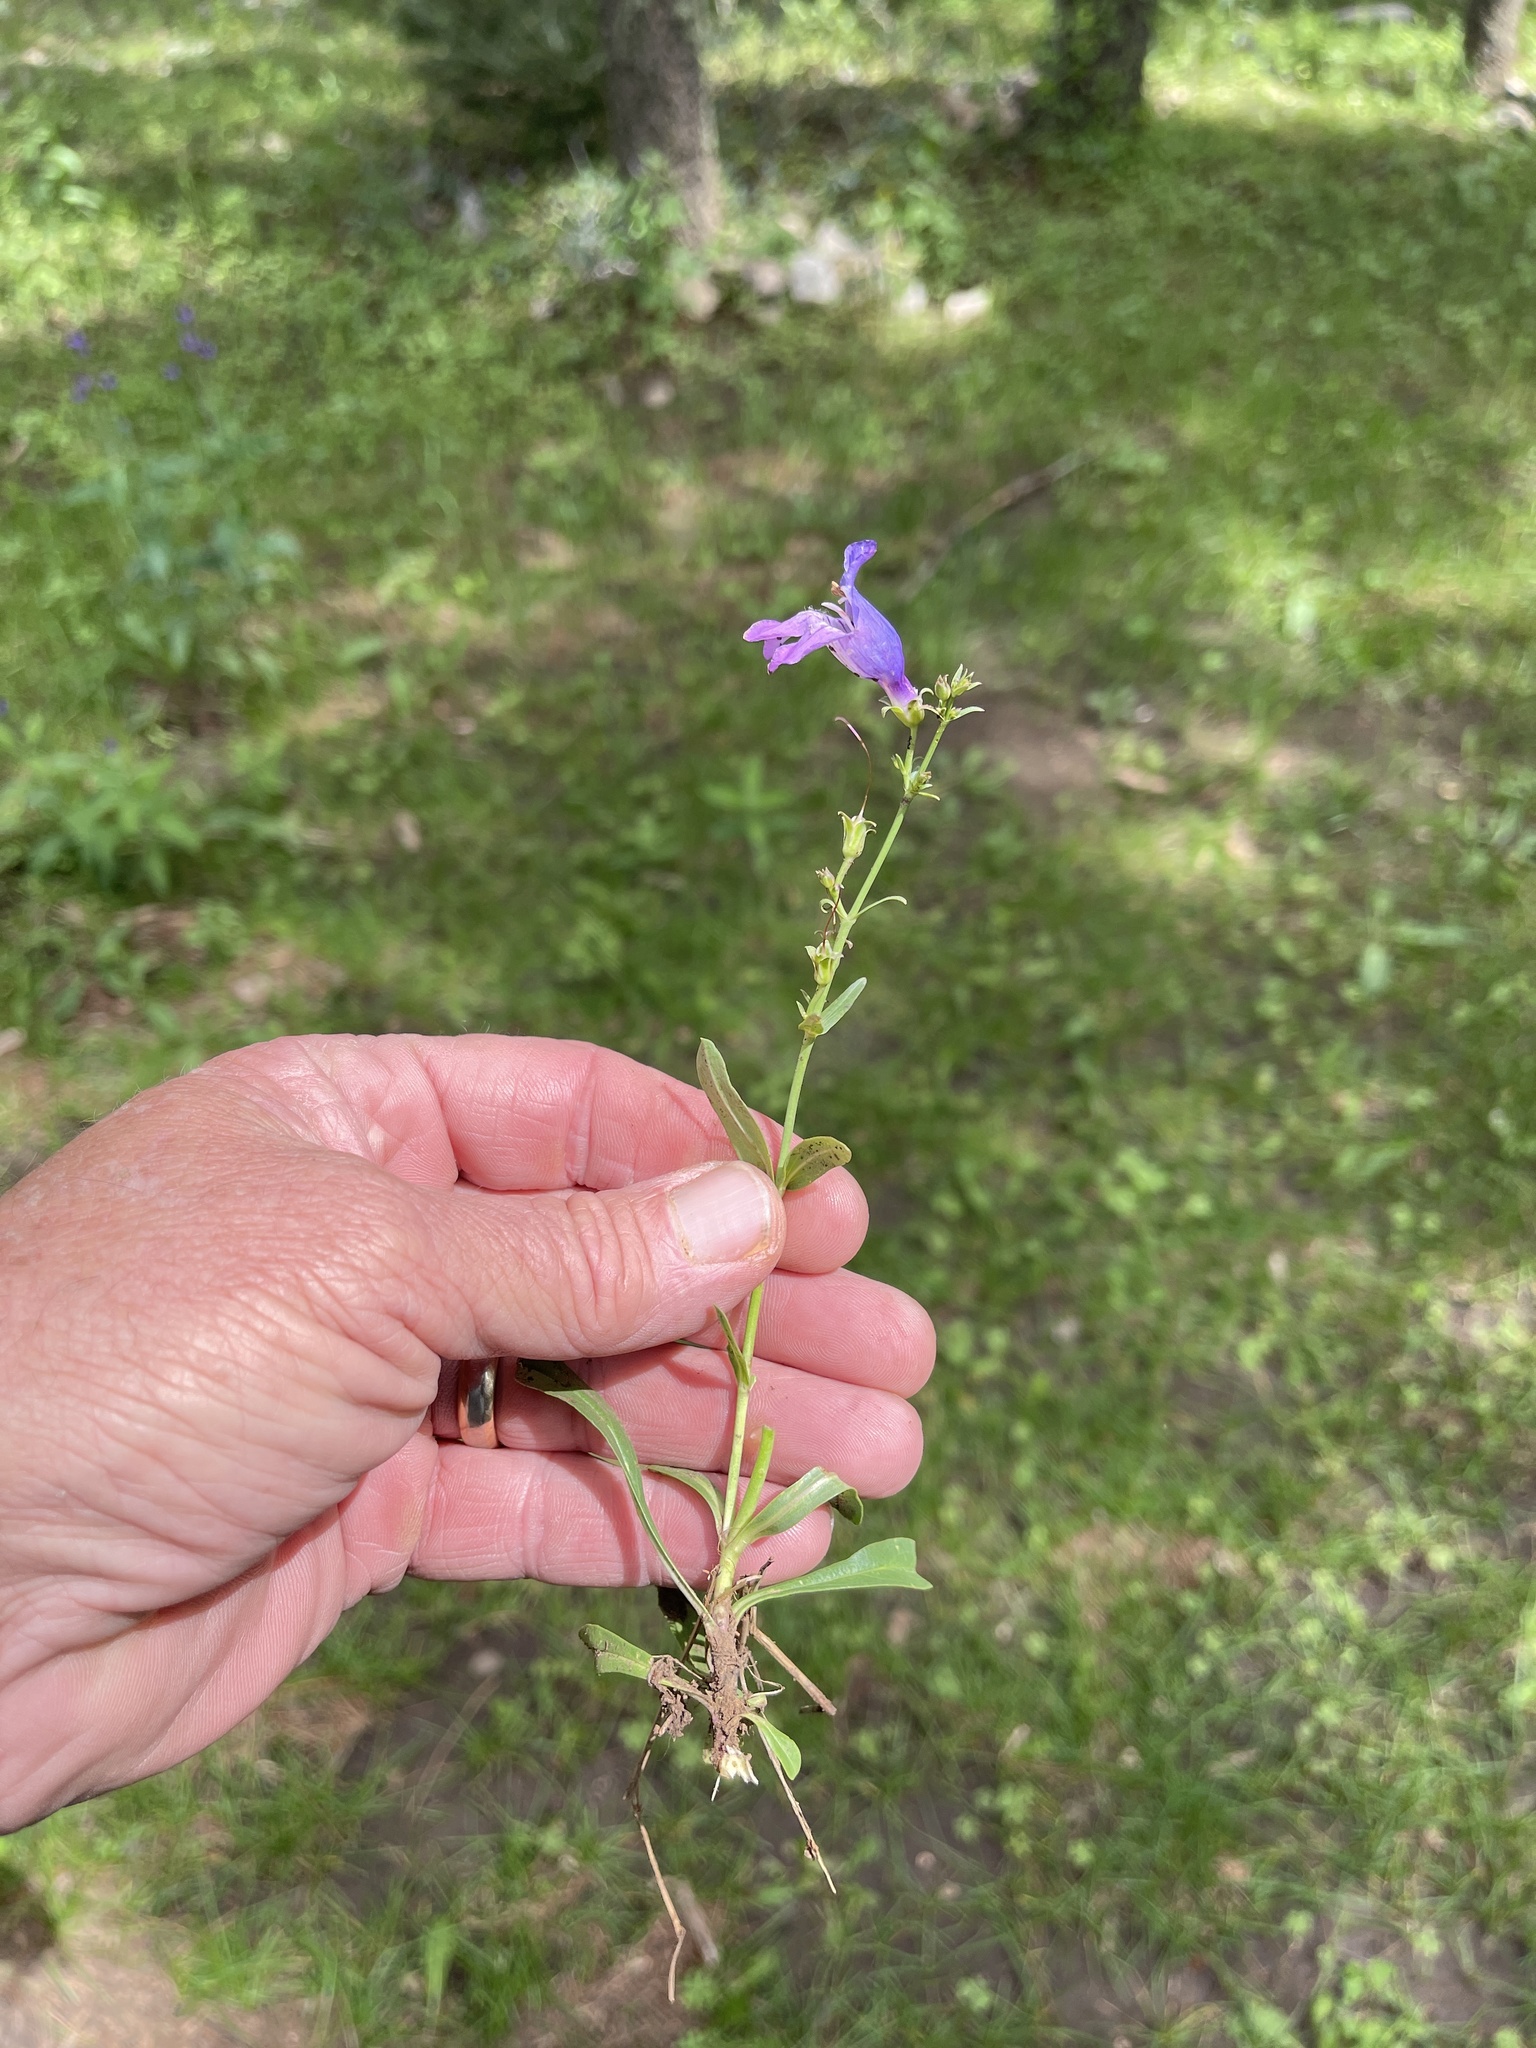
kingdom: Plantae
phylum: Tracheophyta
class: Magnoliopsida
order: Lamiales
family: Plantaginaceae
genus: Penstemon
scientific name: Penstemon neomexicanus
